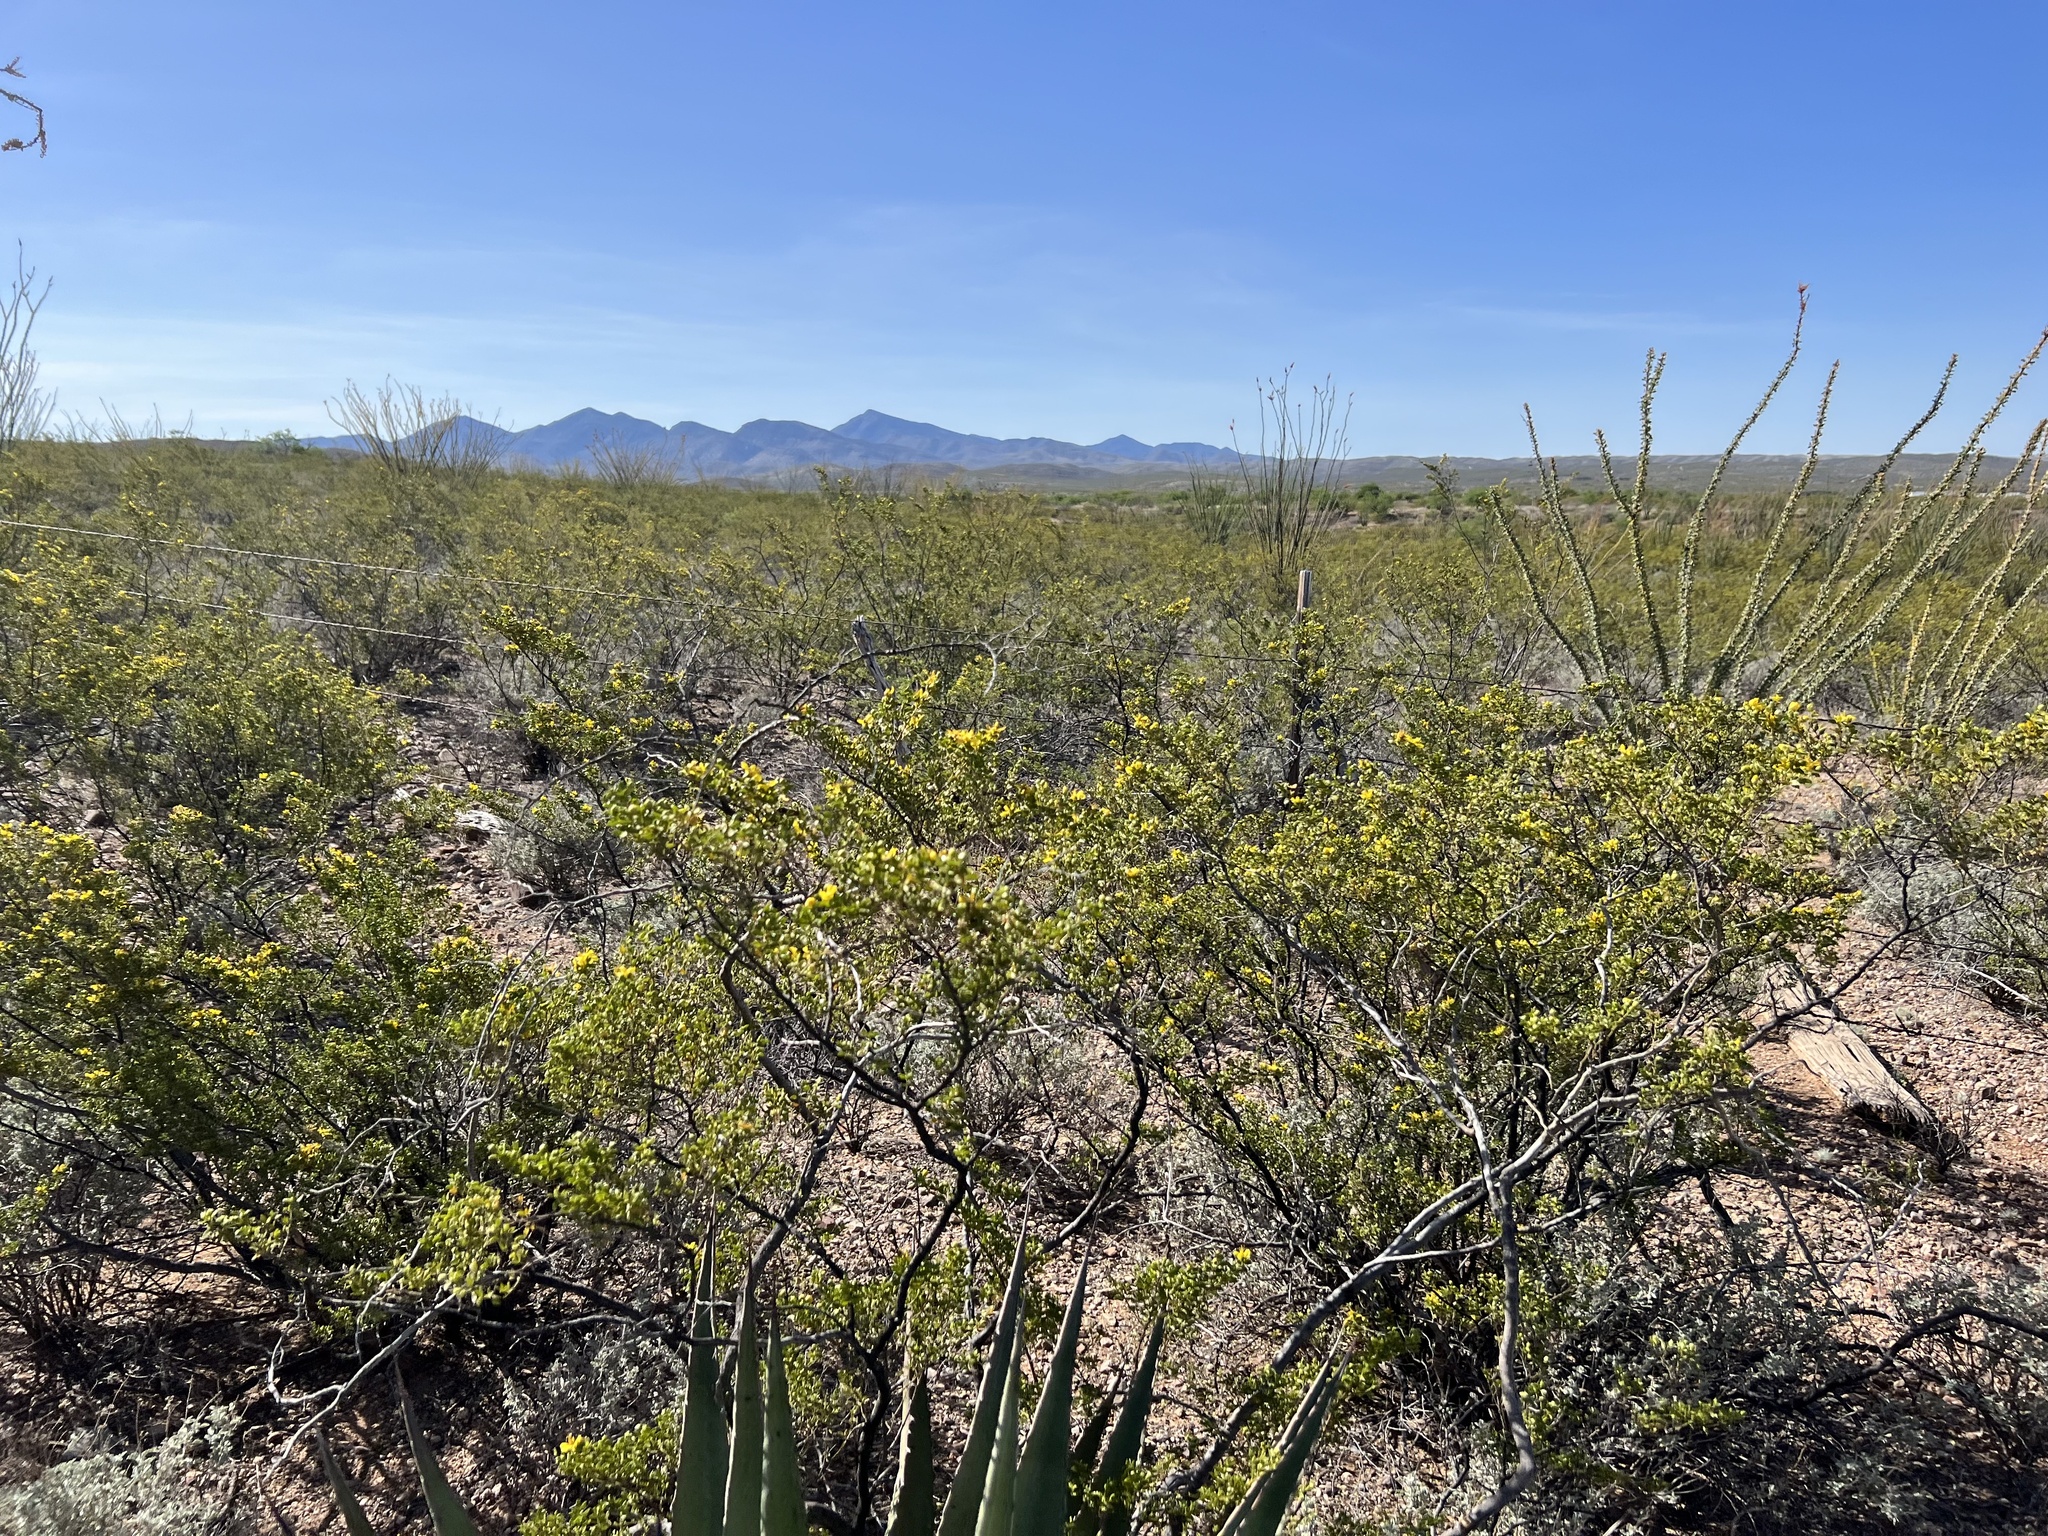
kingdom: Plantae
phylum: Tracheophyta
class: Magnoliopsida
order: Zygophyllales
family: Zygophyllaceae
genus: Larrea
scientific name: Larrea tridentata
